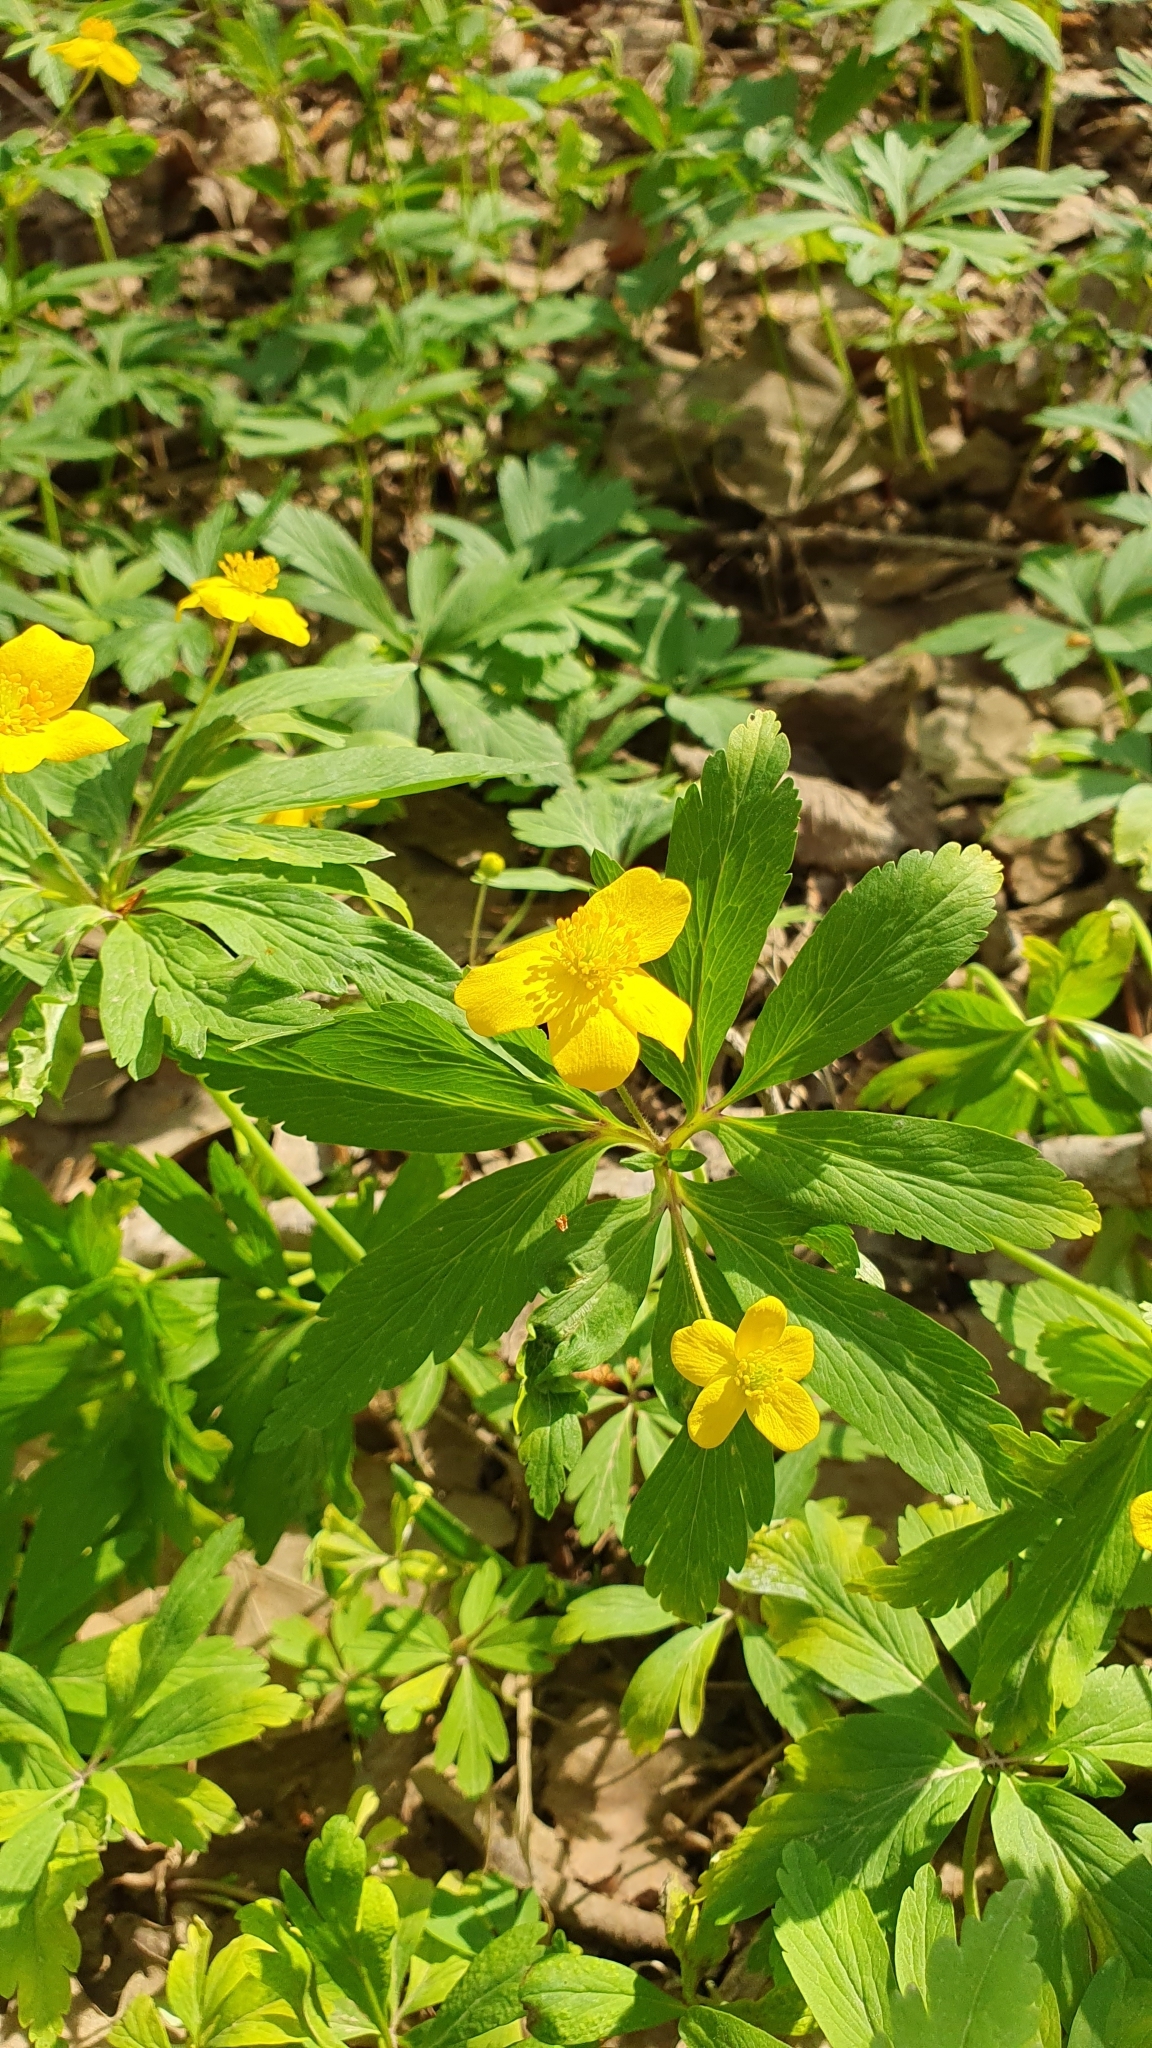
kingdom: Plantae
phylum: Tracheophyta
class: Magnoliopsida
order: Ranunculales
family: Ranunculaceae
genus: Anemone
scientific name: Anemone ranunculoides
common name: Yellow anemone
